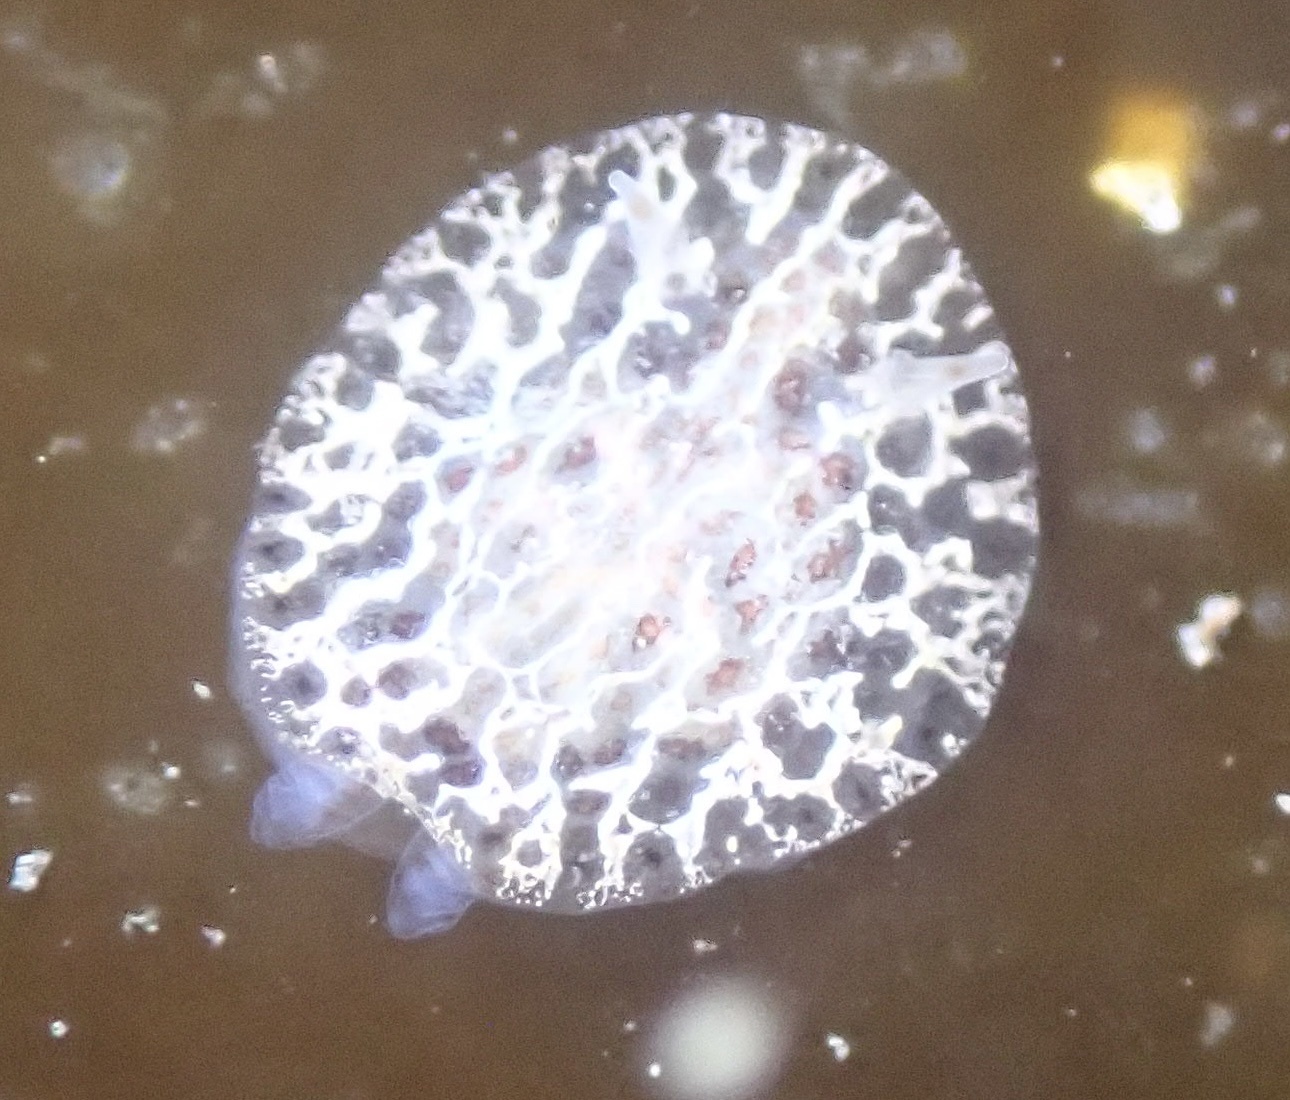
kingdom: Animalia
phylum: Mollusca
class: Gastropoda
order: Nudibranchia
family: Corambidae
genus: Corambe
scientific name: Corambe steinbergae
